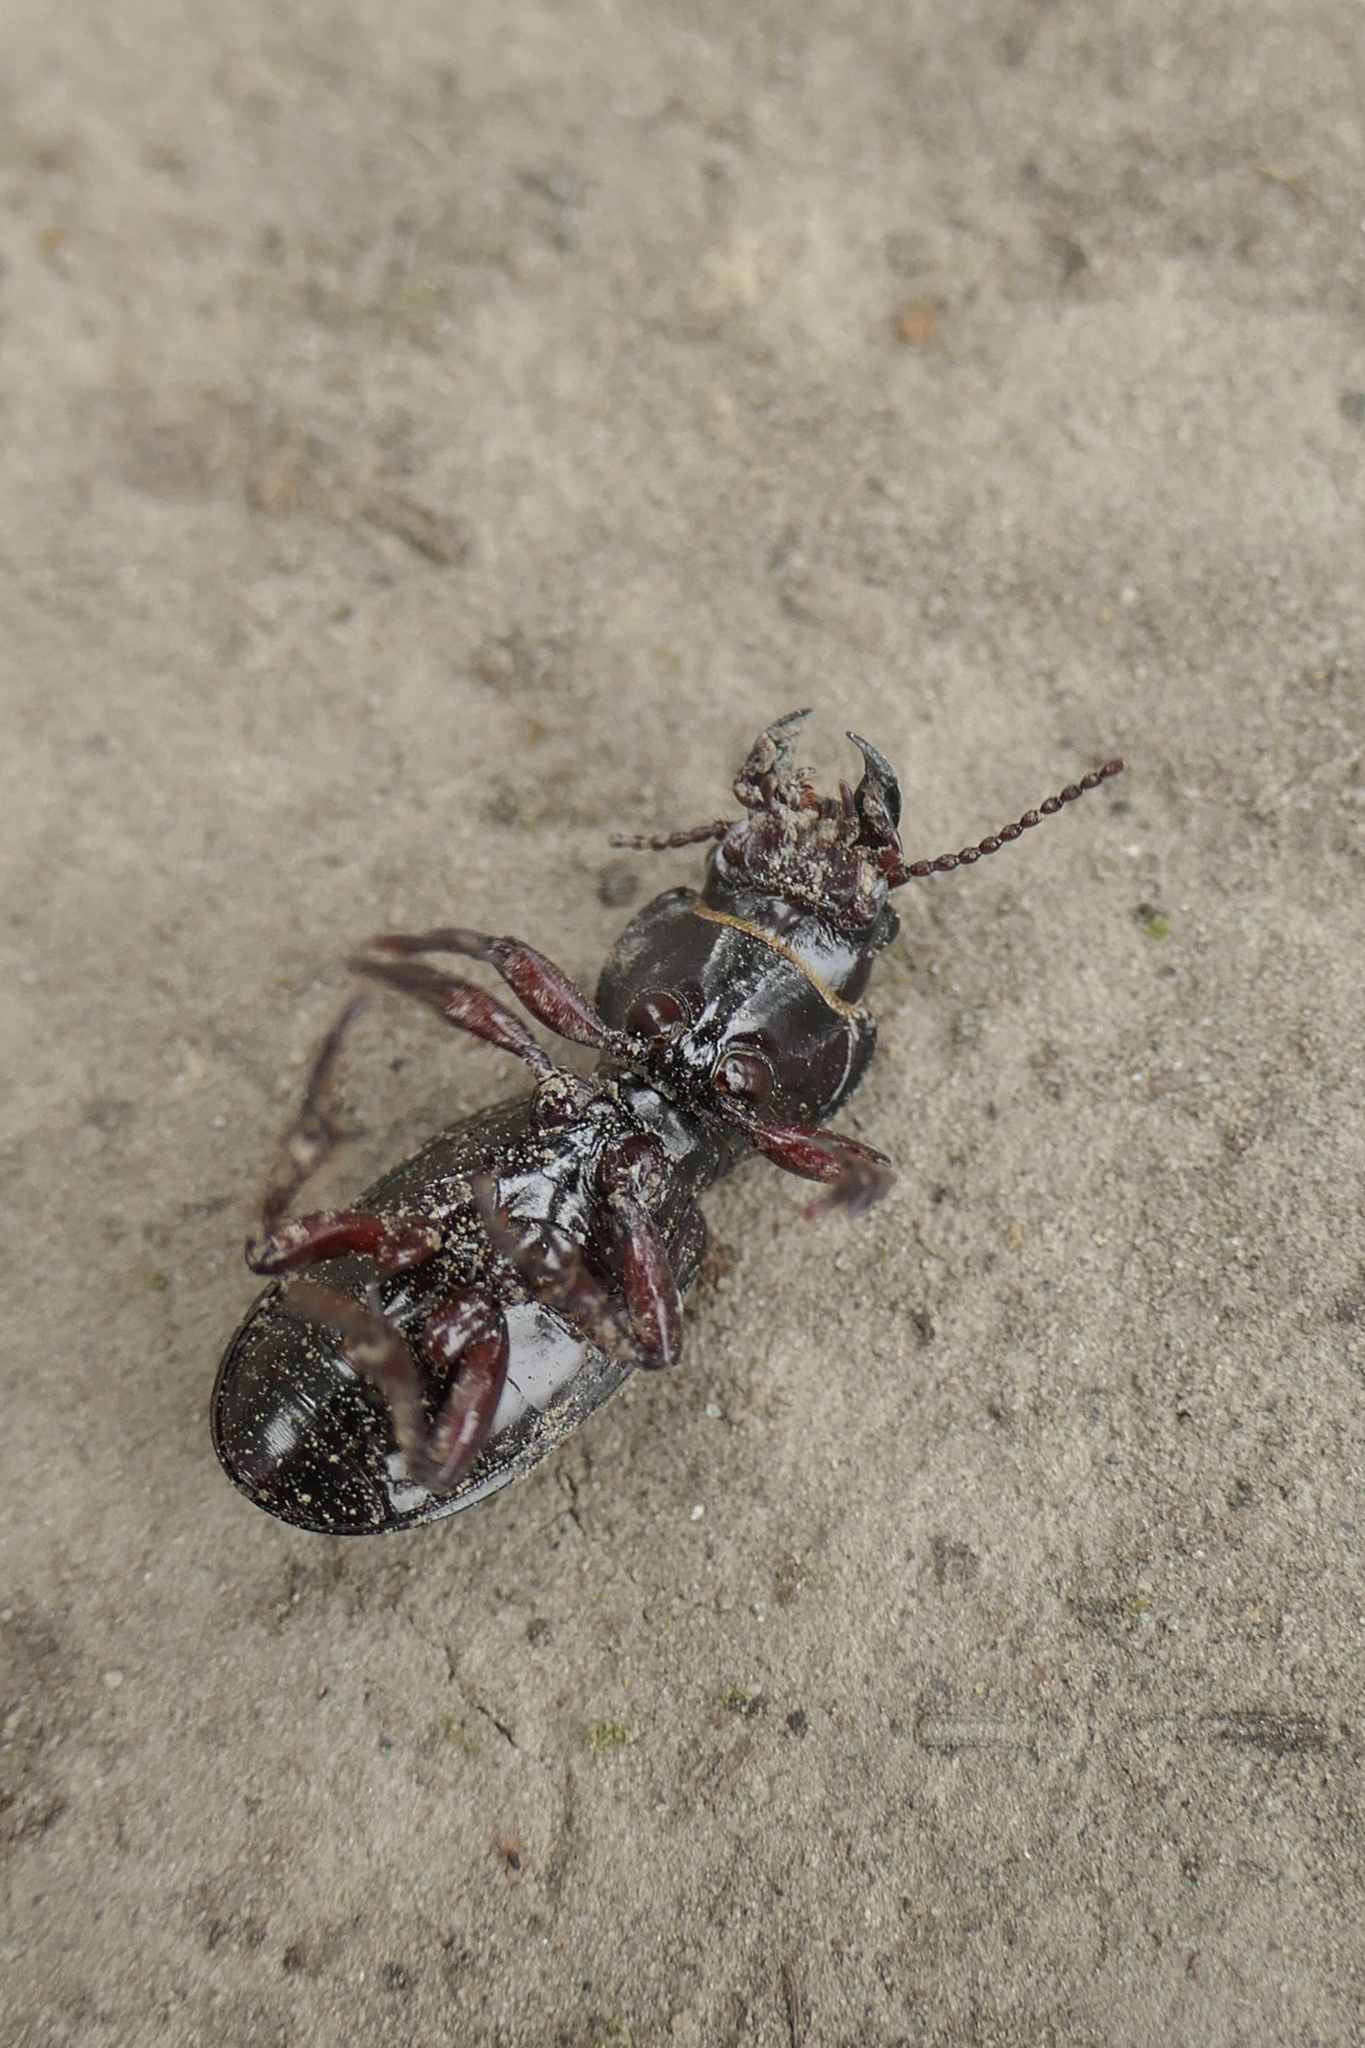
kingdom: Animalia
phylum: Arthropoda
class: Insecta
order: Coleoptera
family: Carabidae
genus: Mecodema
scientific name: Mecodema moniliferum
